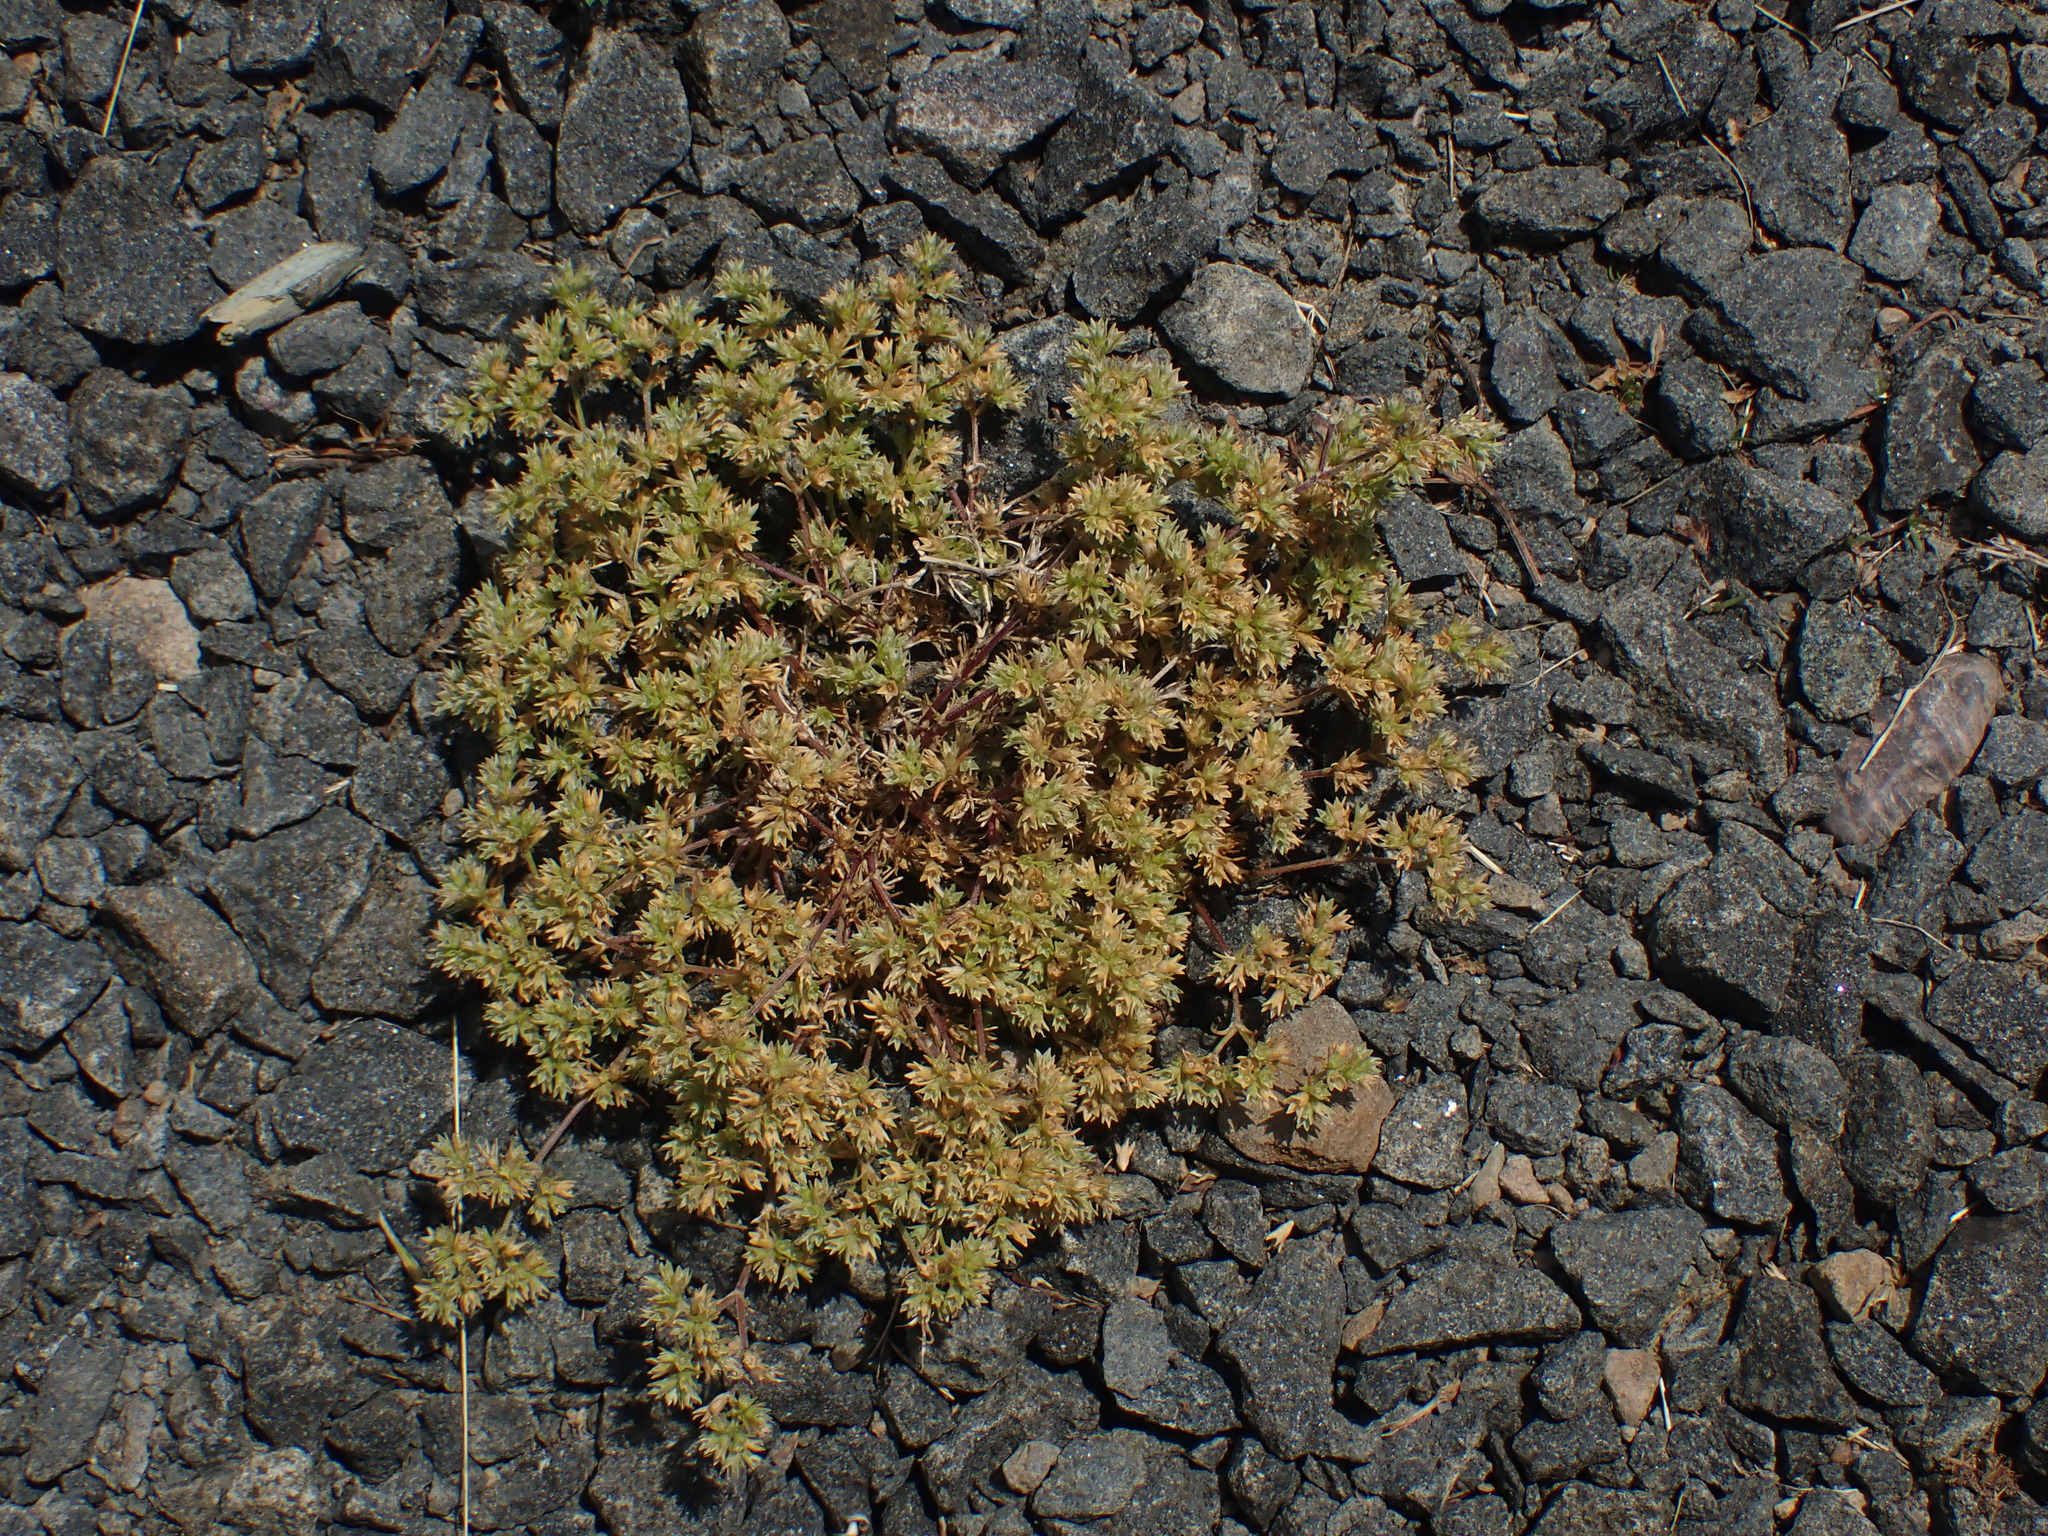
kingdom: Plantae
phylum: Tracheophyta
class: Magnoliopsida
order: Caryophyllales
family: Caryophyllaceae
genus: Scleranthus
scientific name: Scleranthus annuus
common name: Annual knawel
